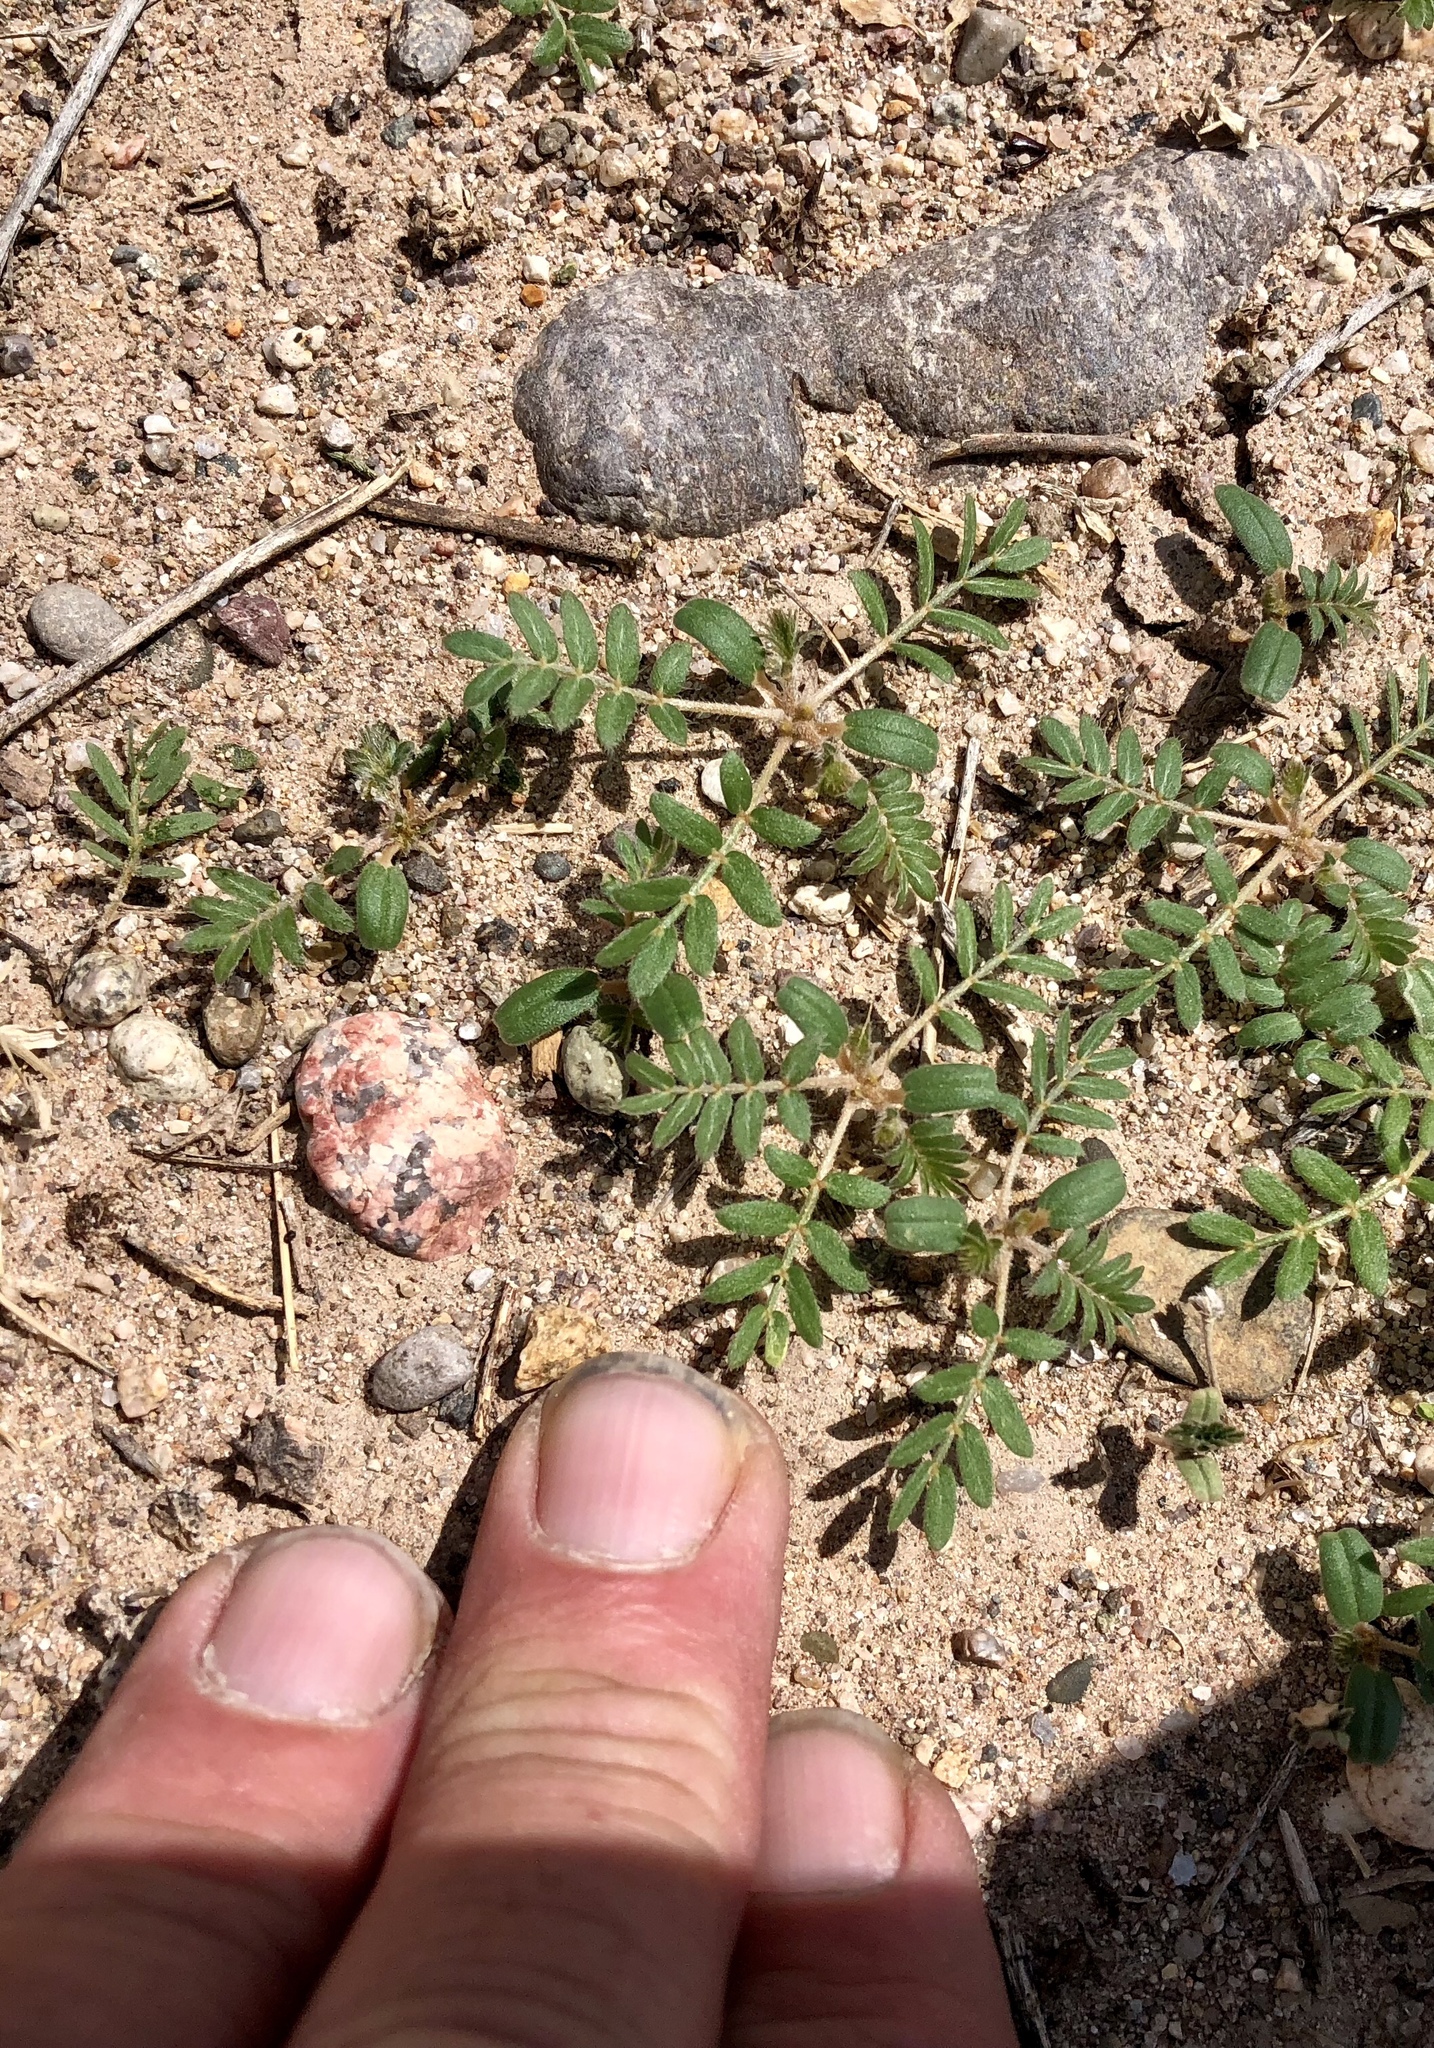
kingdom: Plantae
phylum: Tracheophyta
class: Magnoliopsida
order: Zygophyllales
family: Zygophyllaceae
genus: Tribulus
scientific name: Tribulus terrestris
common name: Puncturevine
